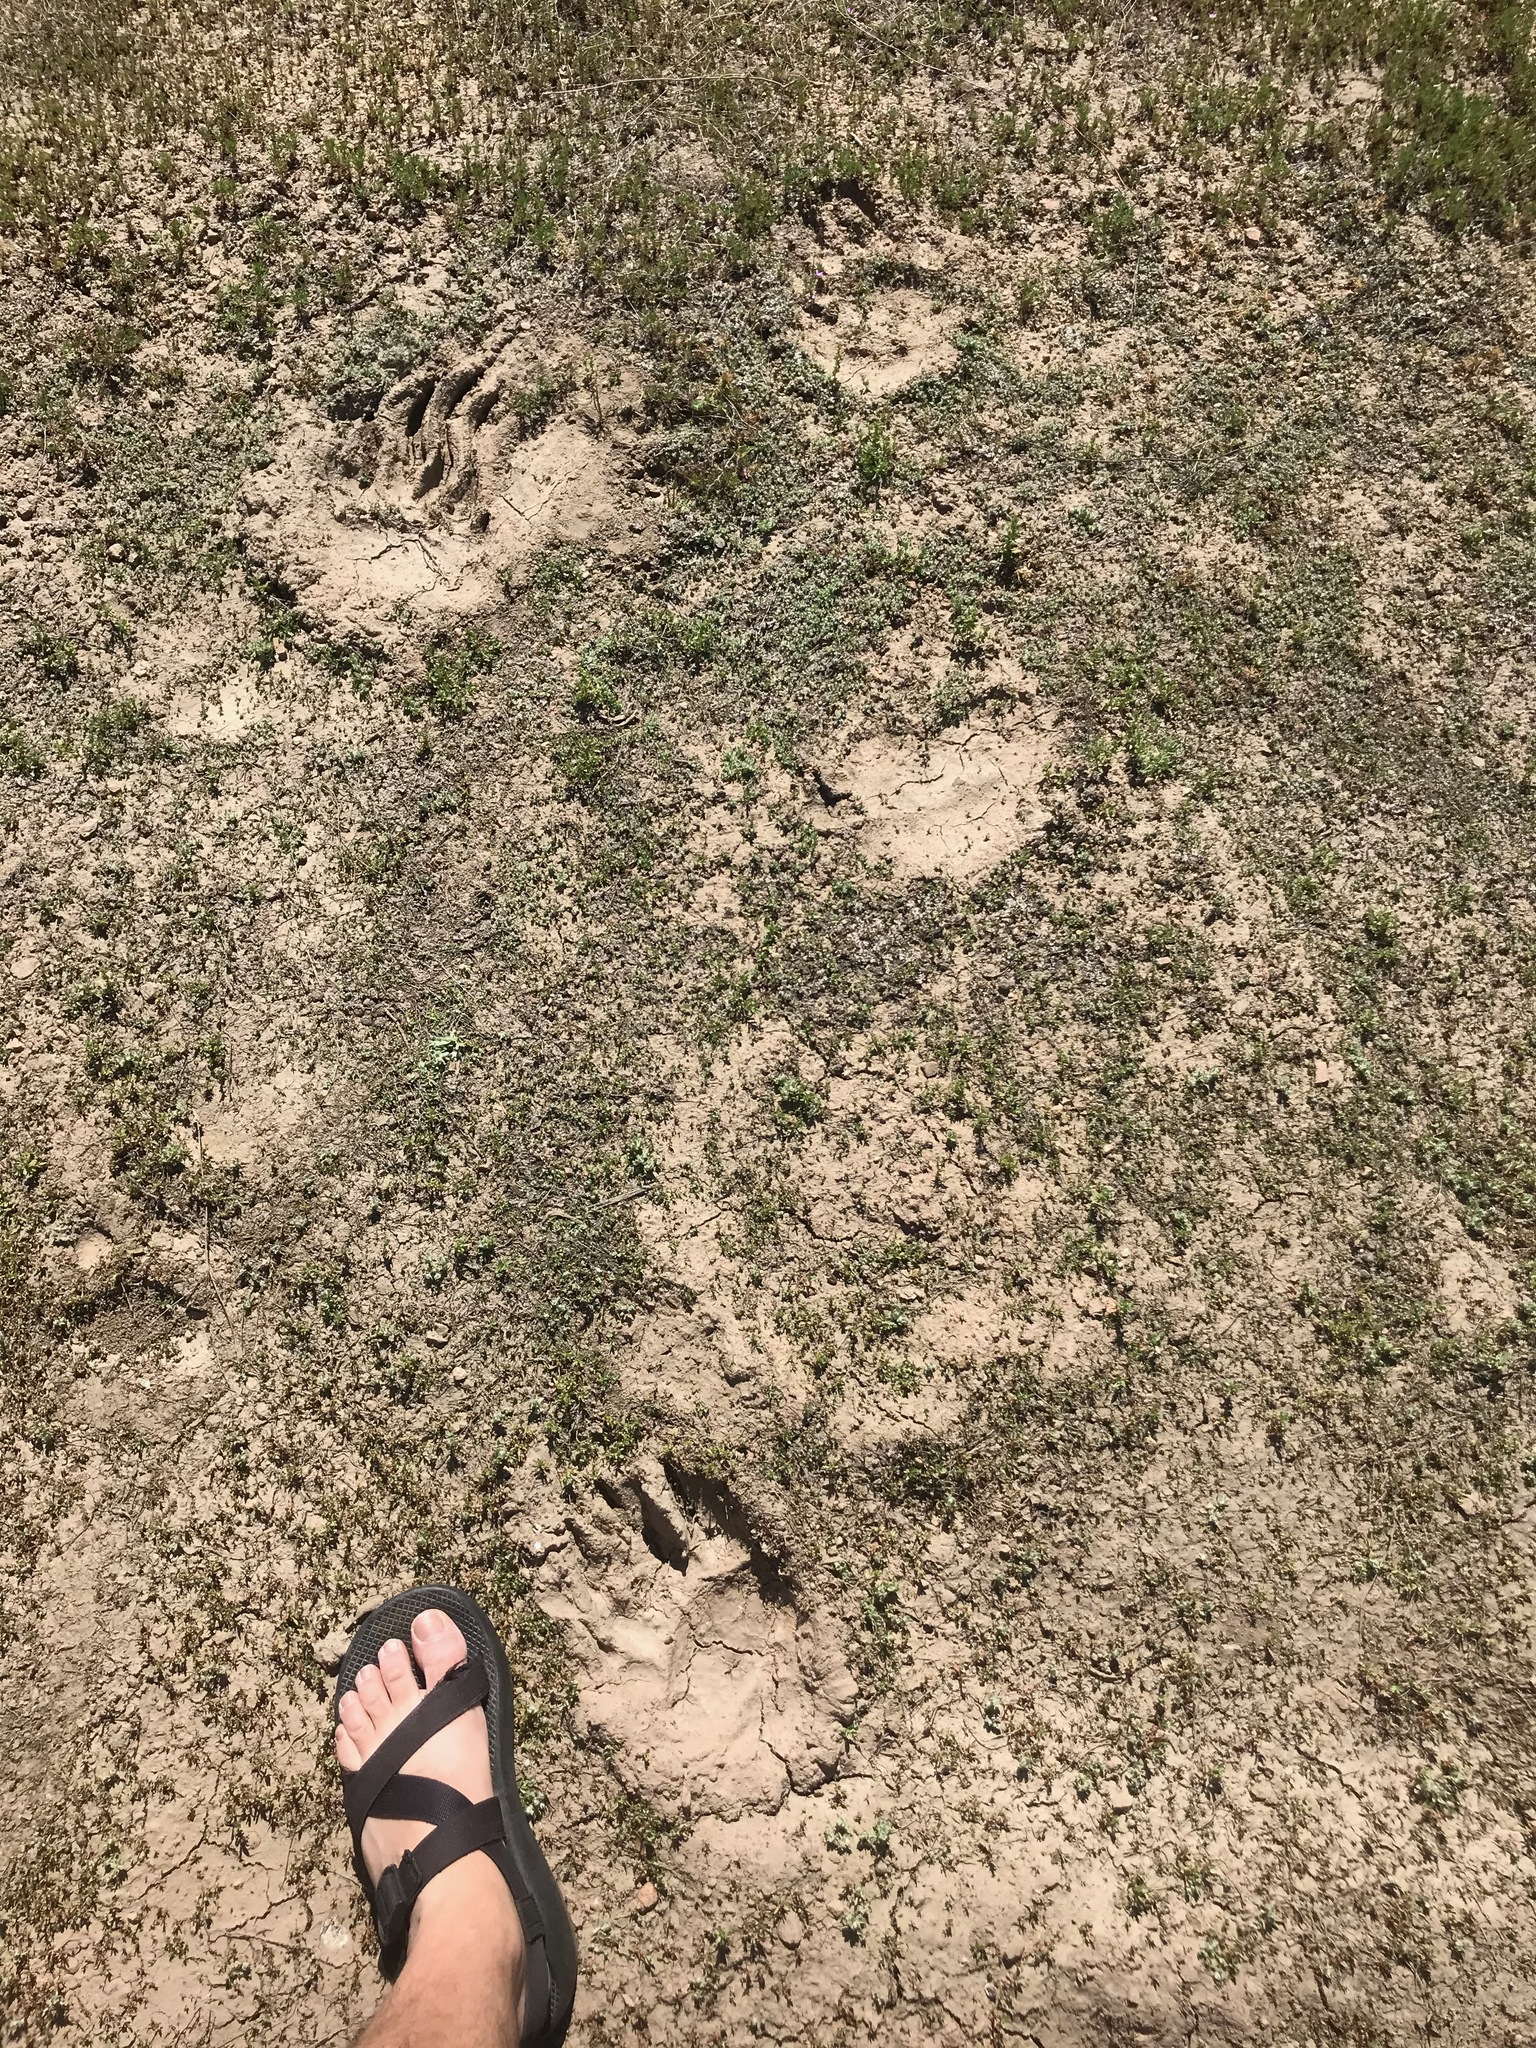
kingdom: Animalia
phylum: Chordata
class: Mammalia
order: Carnivora
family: Ursidae
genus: Ursus
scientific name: Ursus americanus
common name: American black bear
